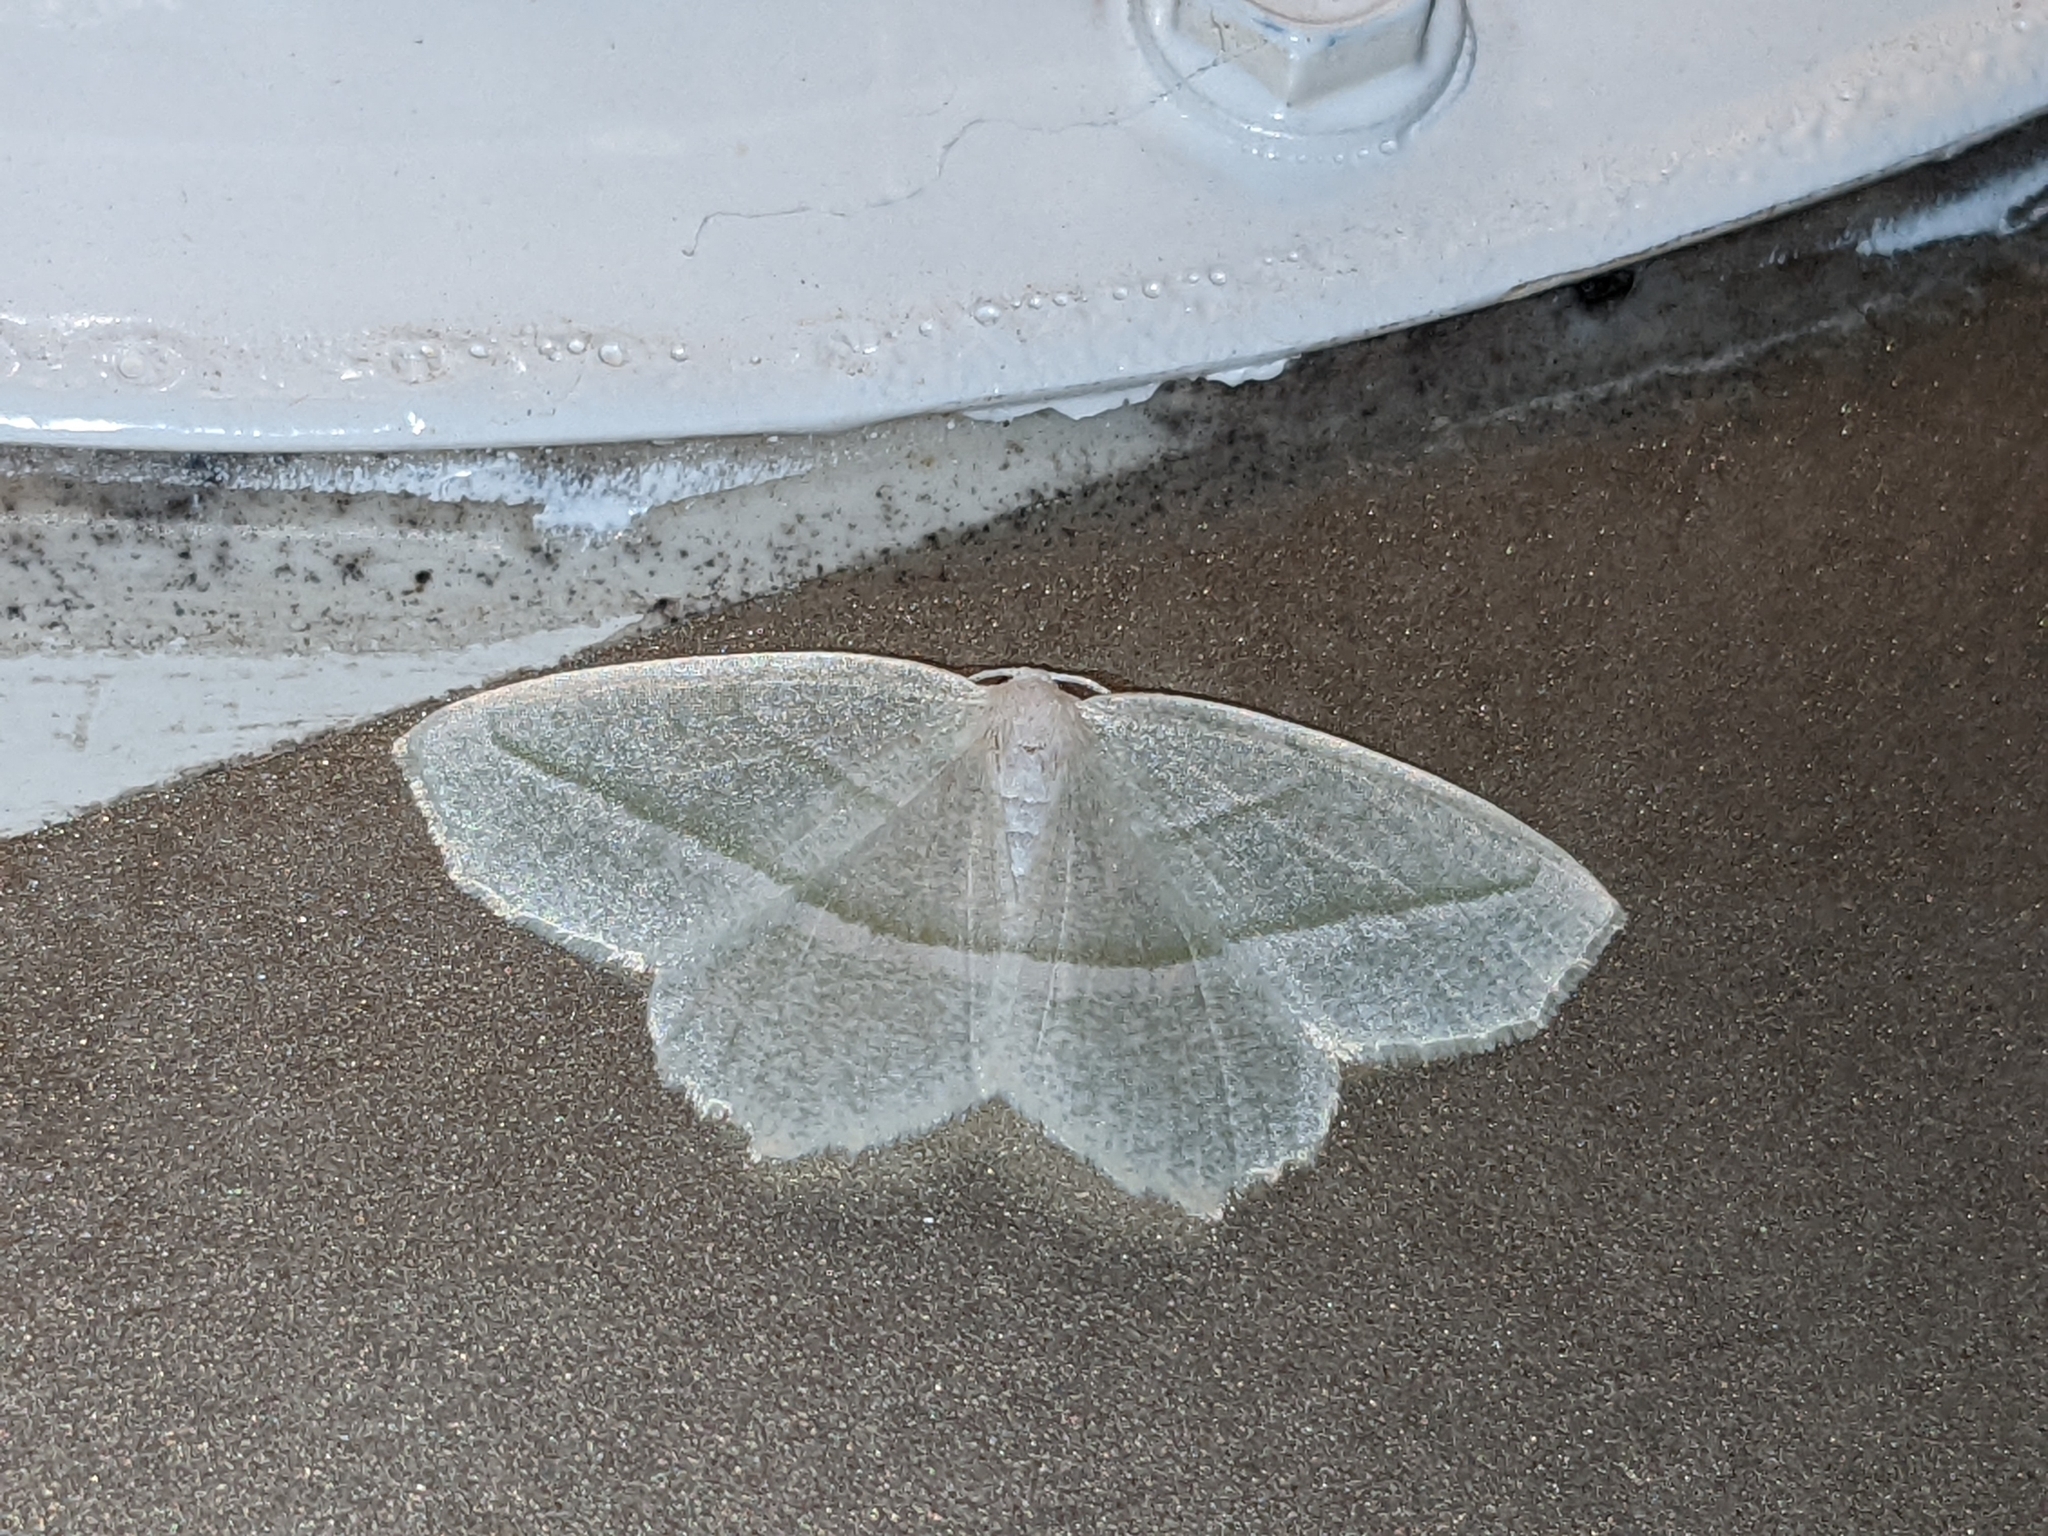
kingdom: Animalia
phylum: Arthropoda
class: Insecta
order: Lepidoptera
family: Geometridae
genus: Campaea
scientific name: Campaea perlata
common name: Fringed looper
